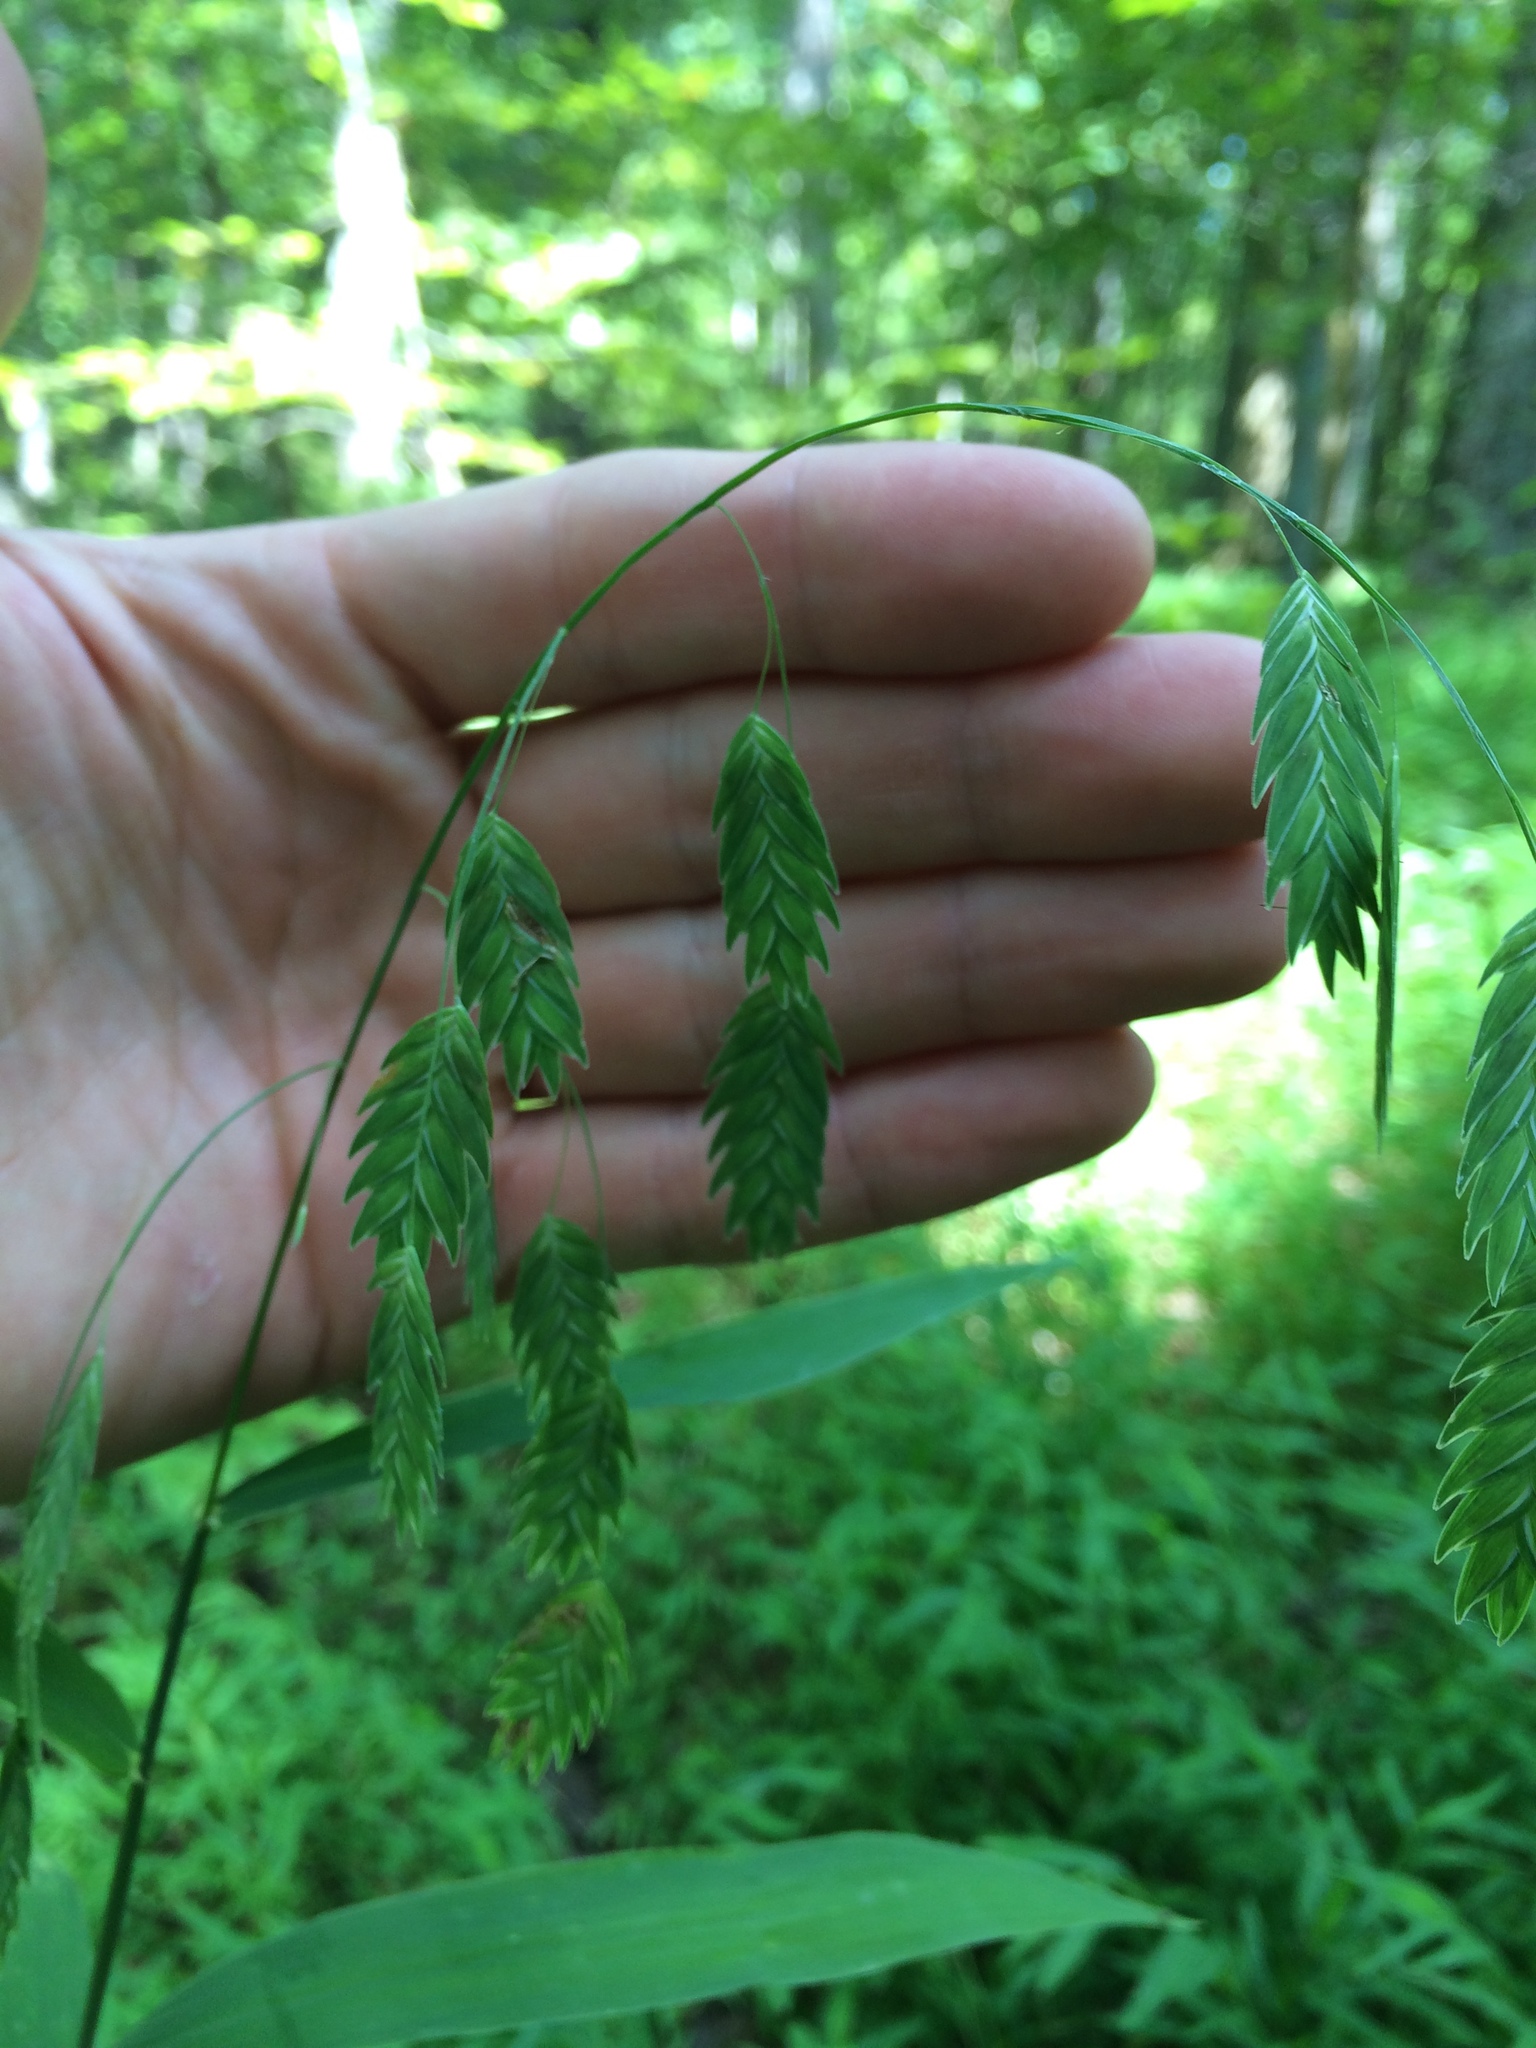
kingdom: Plantae
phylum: Tracheophyta
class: Liliopsida
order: Poales
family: Poaceae
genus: Chasmanthium
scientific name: Chasmanthium latifolium
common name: Broad-leaved chasmanthium
